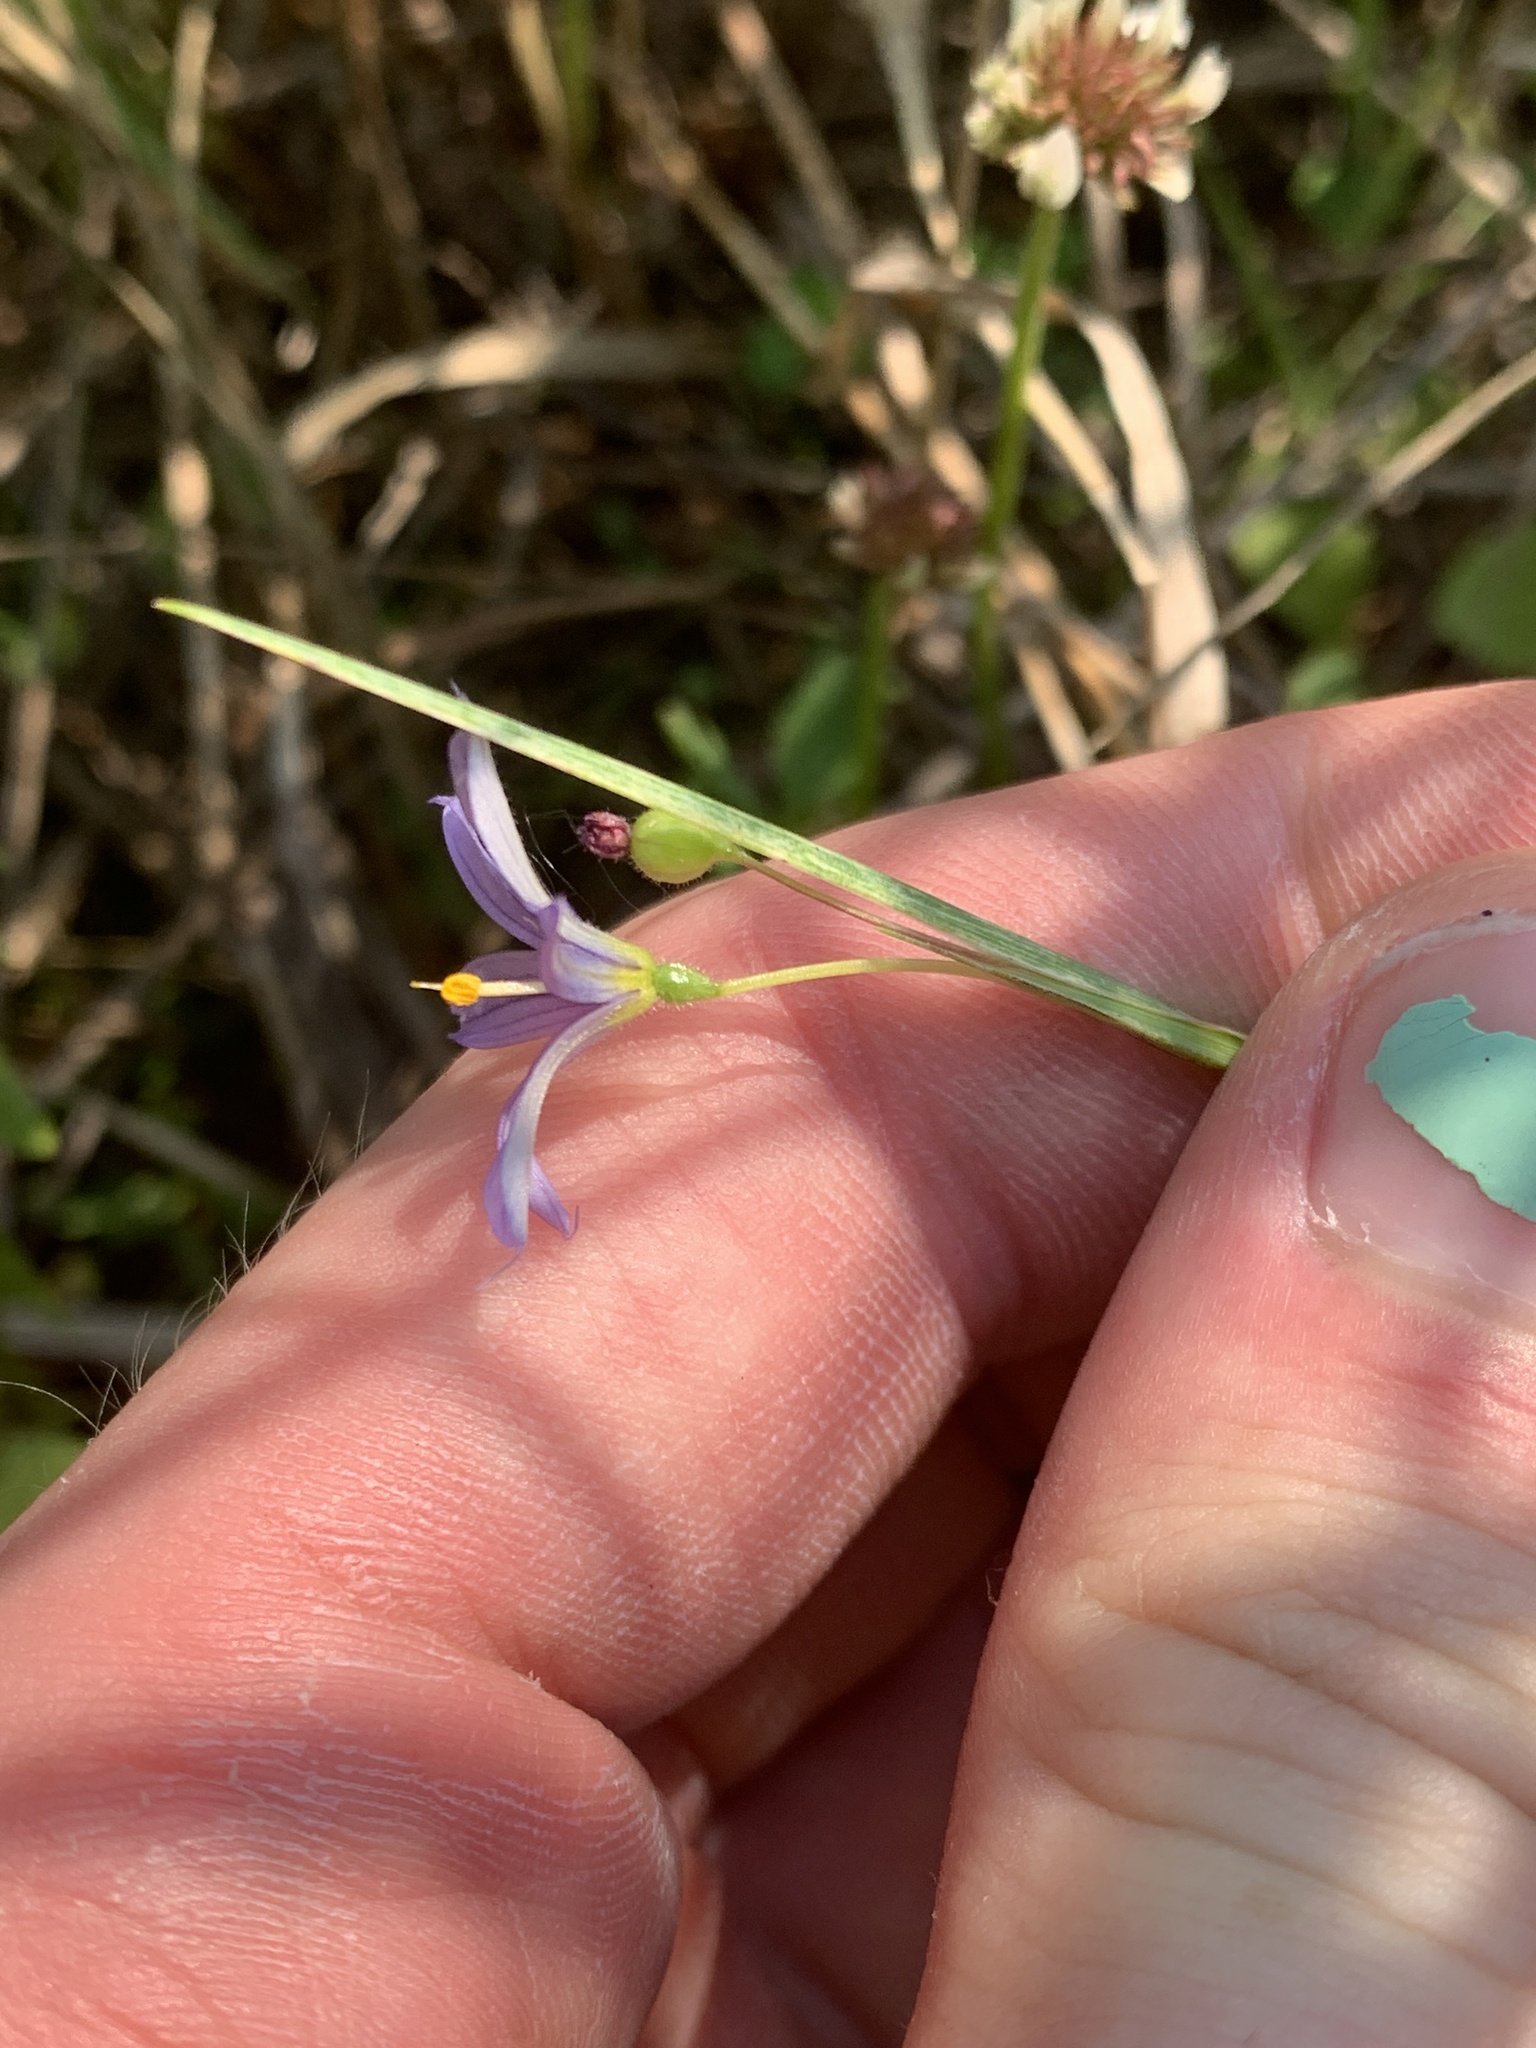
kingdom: Plantae
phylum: Tracheophyta
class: Liliopsida
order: Asparagales
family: Iridaceae
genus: Sisyrinchium
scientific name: Sisyrinchium montanum
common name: American blue-eyed-grass
